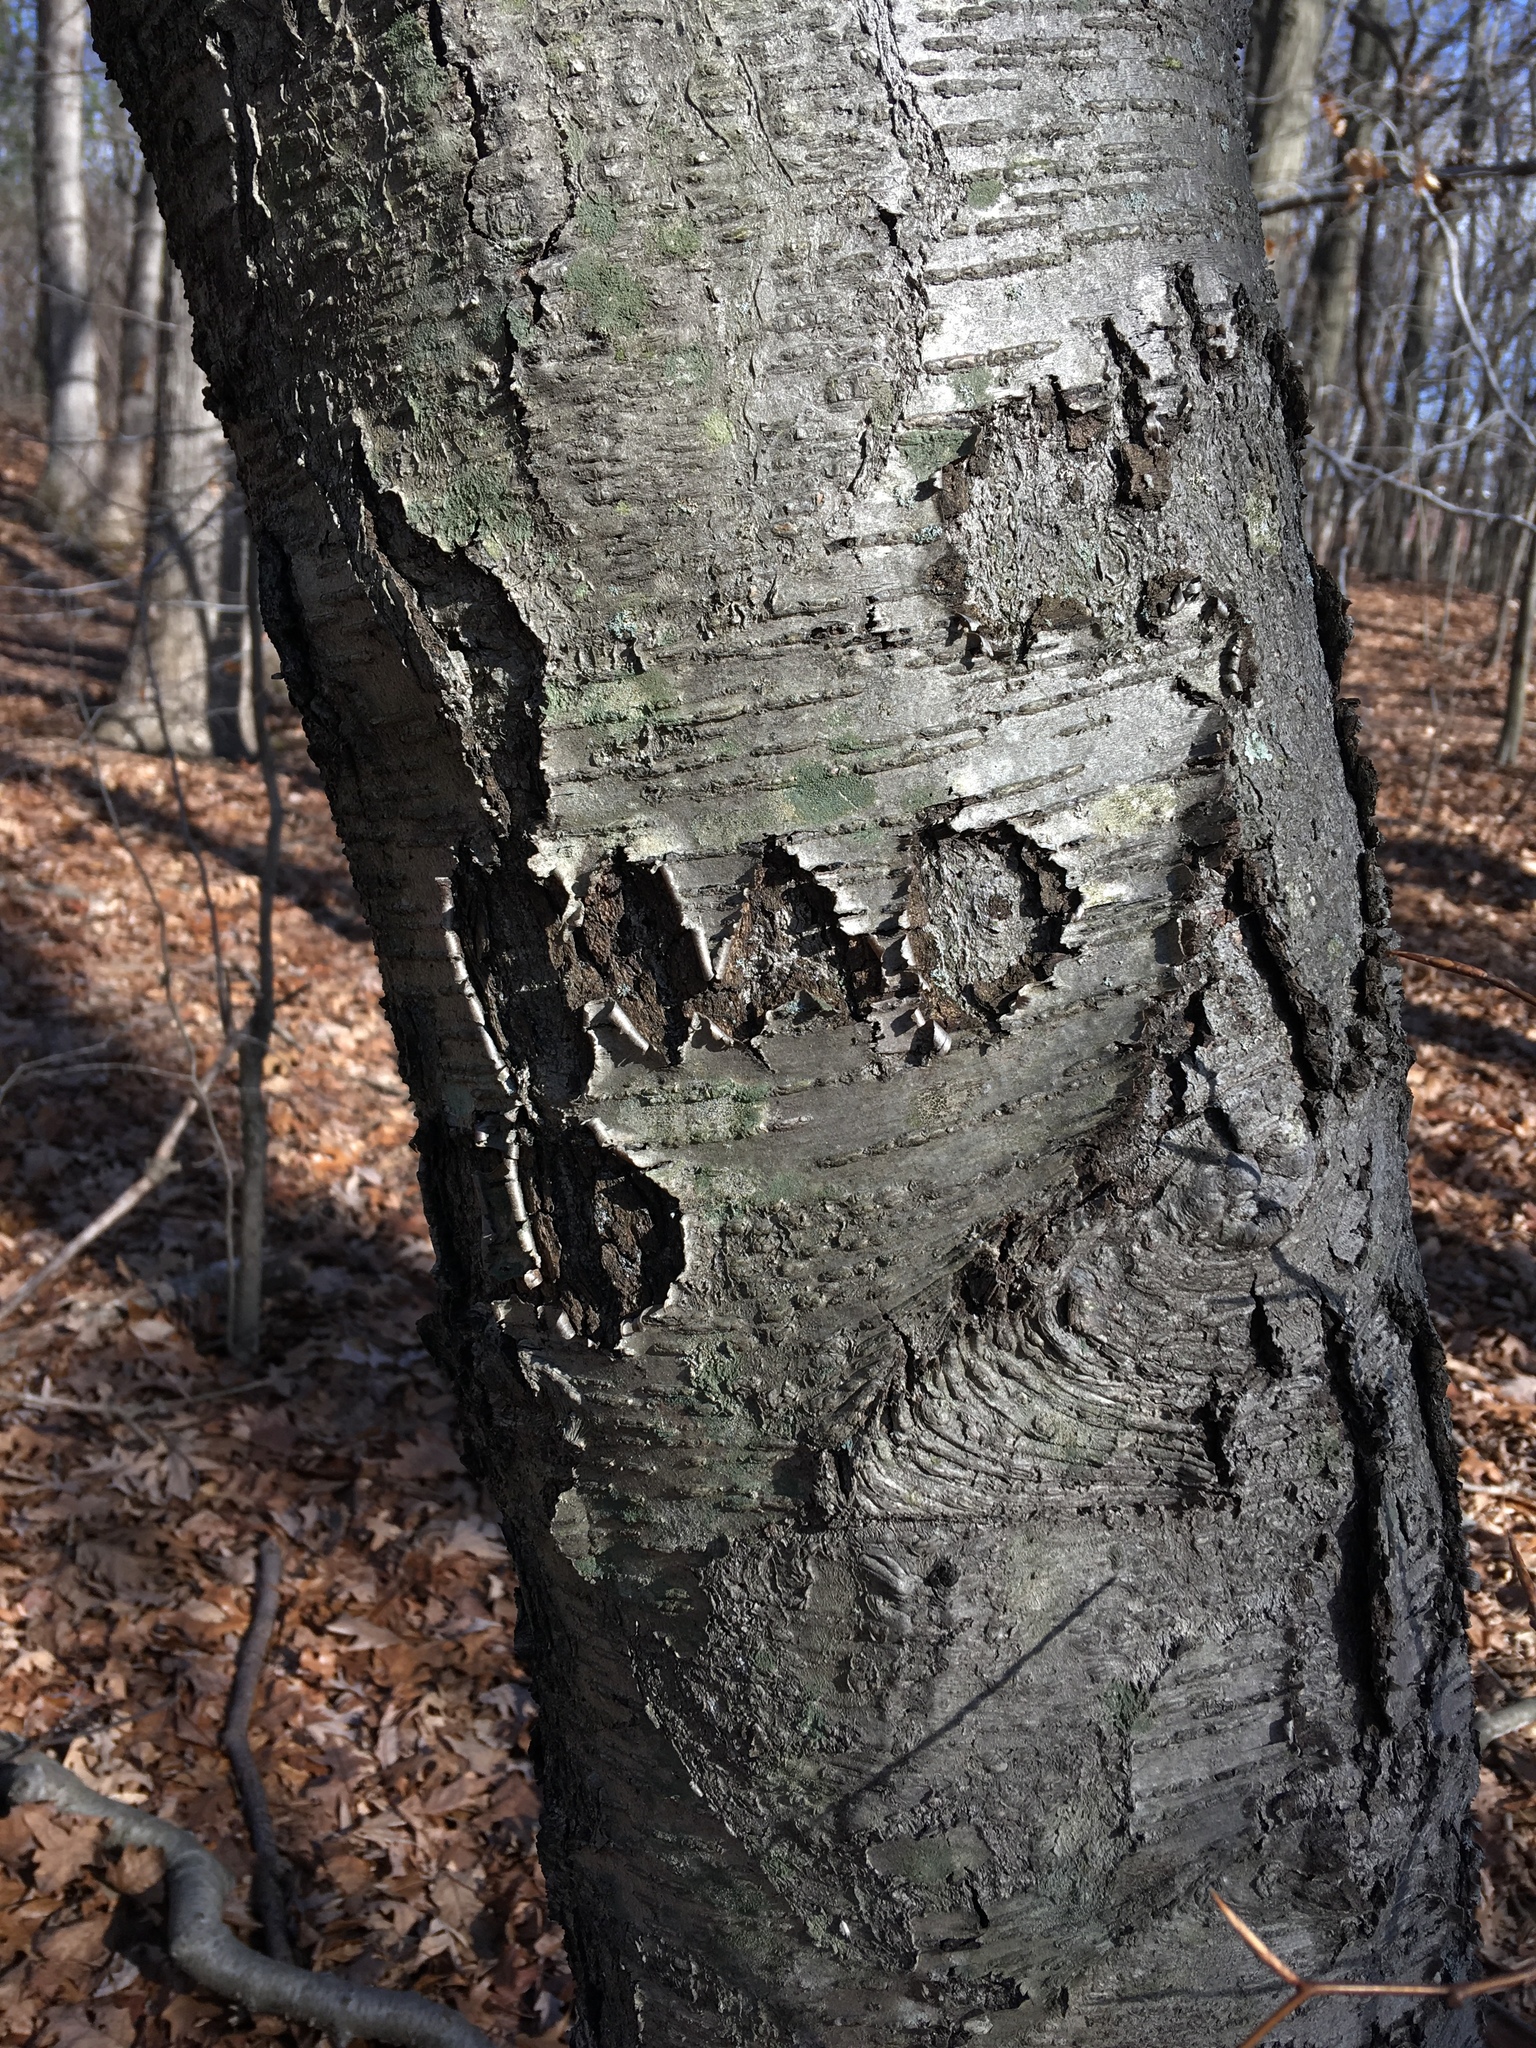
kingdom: Plantae
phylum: Tracheophyta
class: Magnoliopsida
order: Fagales
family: Betulaceae
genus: Betula
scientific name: Betula lenta
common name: Black birch
